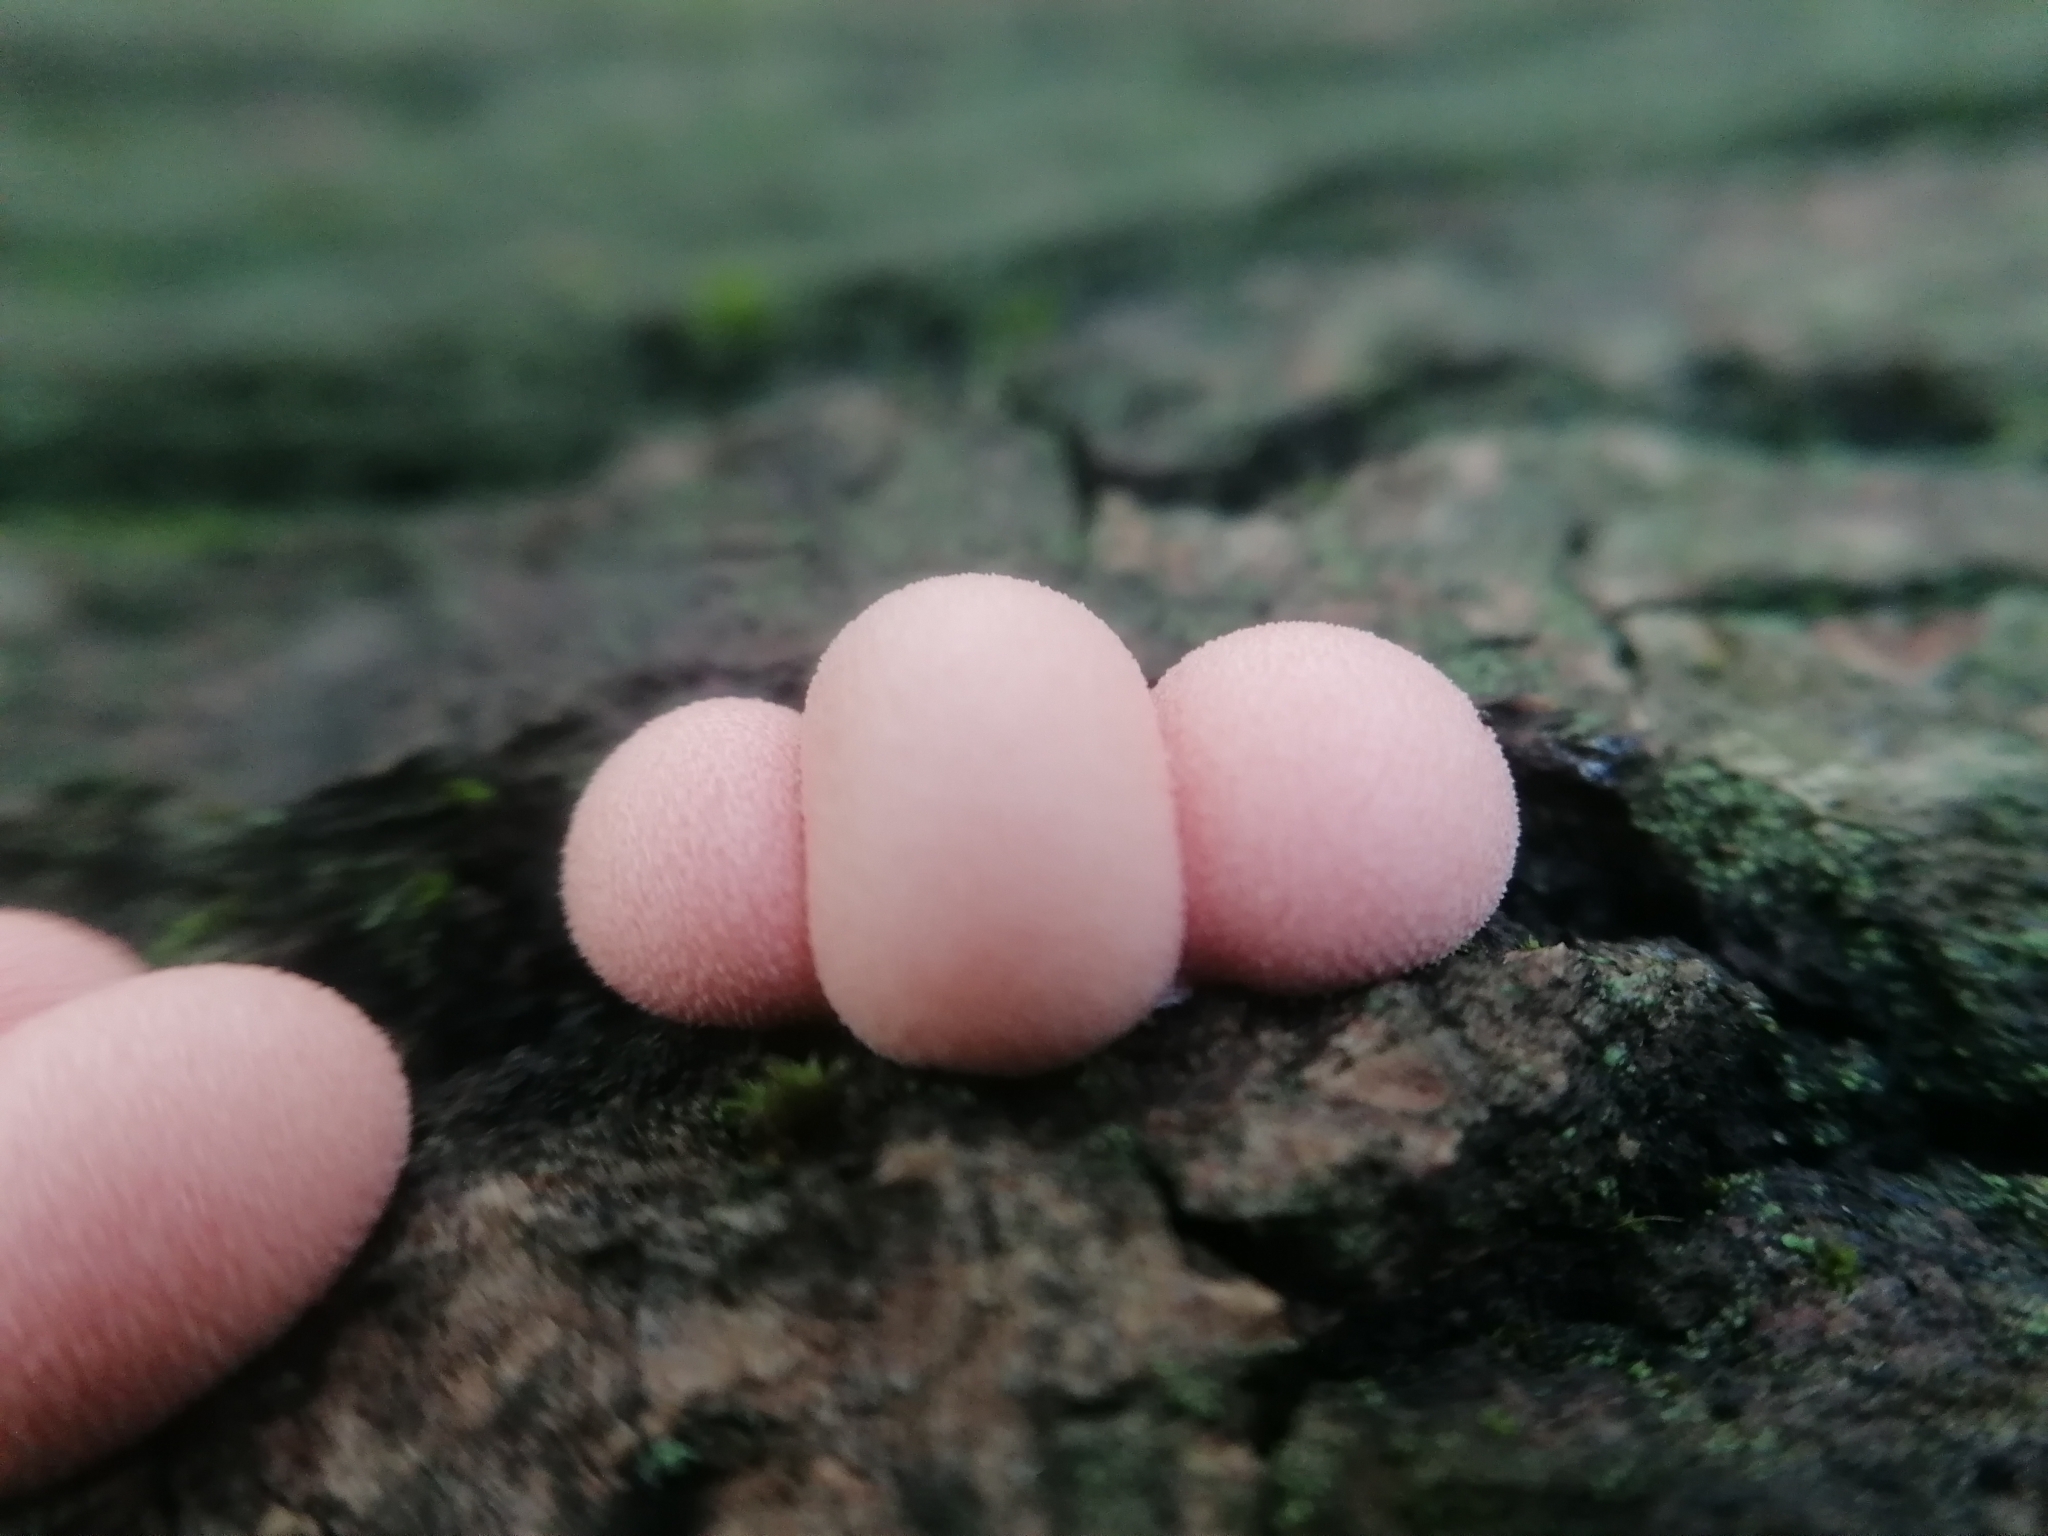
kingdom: Protozoa
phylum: Mycetozoa
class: Myxomycetes
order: Cribrariales
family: Tubiferaceae
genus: Lycogala
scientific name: Lycogala epidendrum
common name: Wolf's milk
